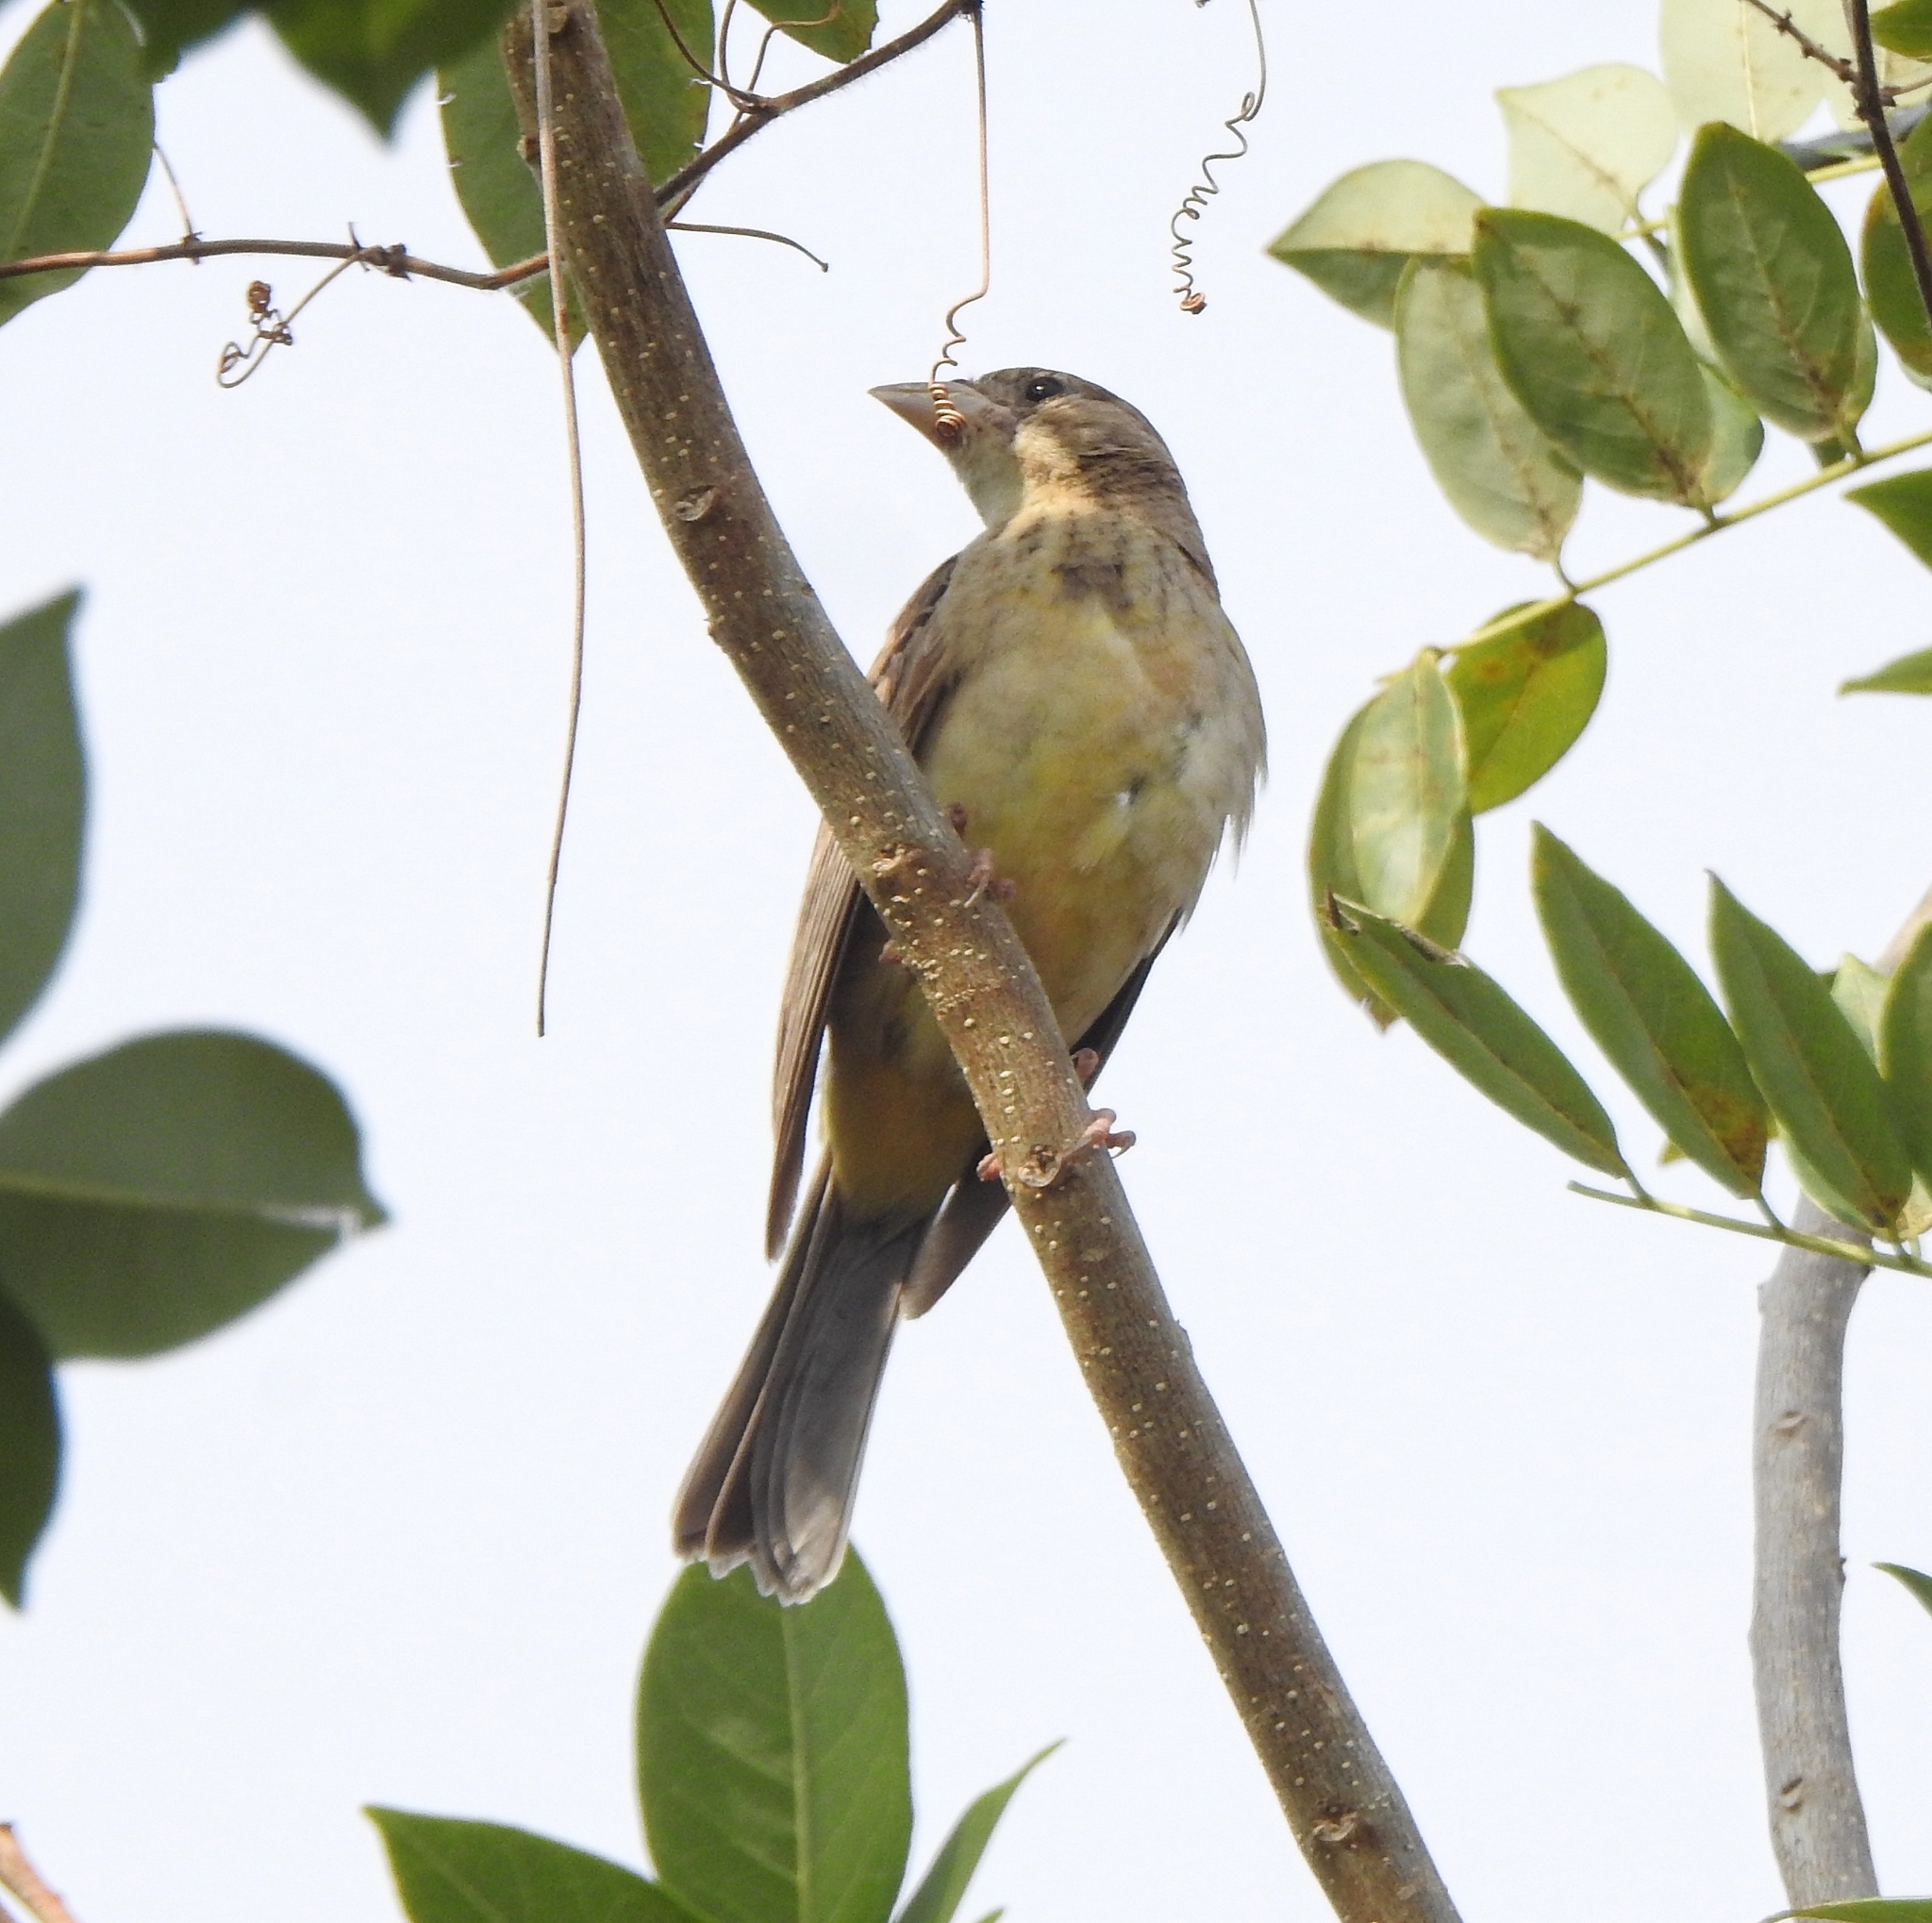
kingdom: Animalia
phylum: Chordata
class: Aves
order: Passeriformes
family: Emberizidae
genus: Emberiza
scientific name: Emberiza melanocephala
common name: Black-headed bunting
